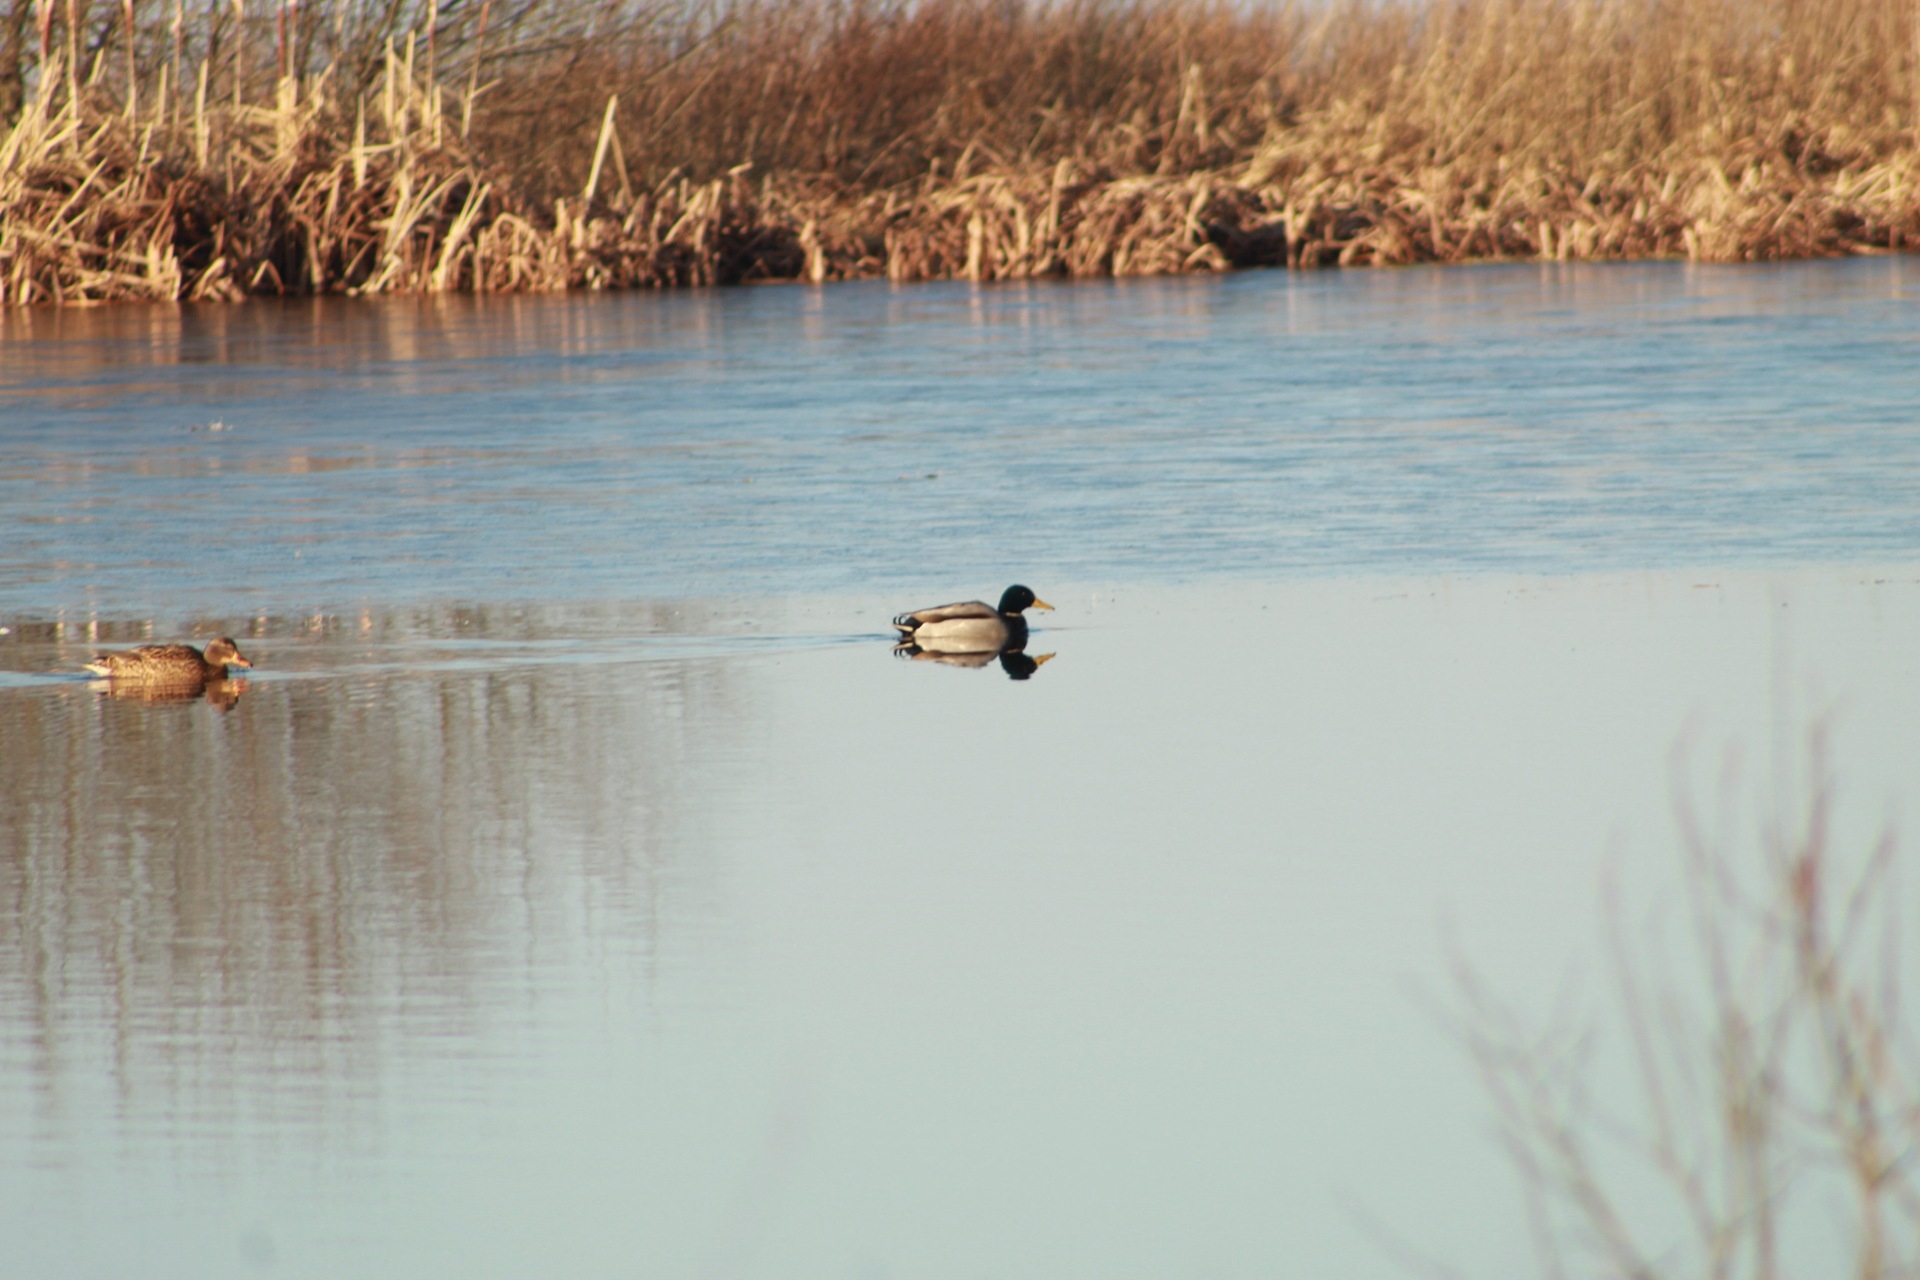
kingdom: Animalia
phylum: Chordata
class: Aves
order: Anseriformes
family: Anatidae
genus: Anas
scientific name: Anas platyrhynchos
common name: Mallard
